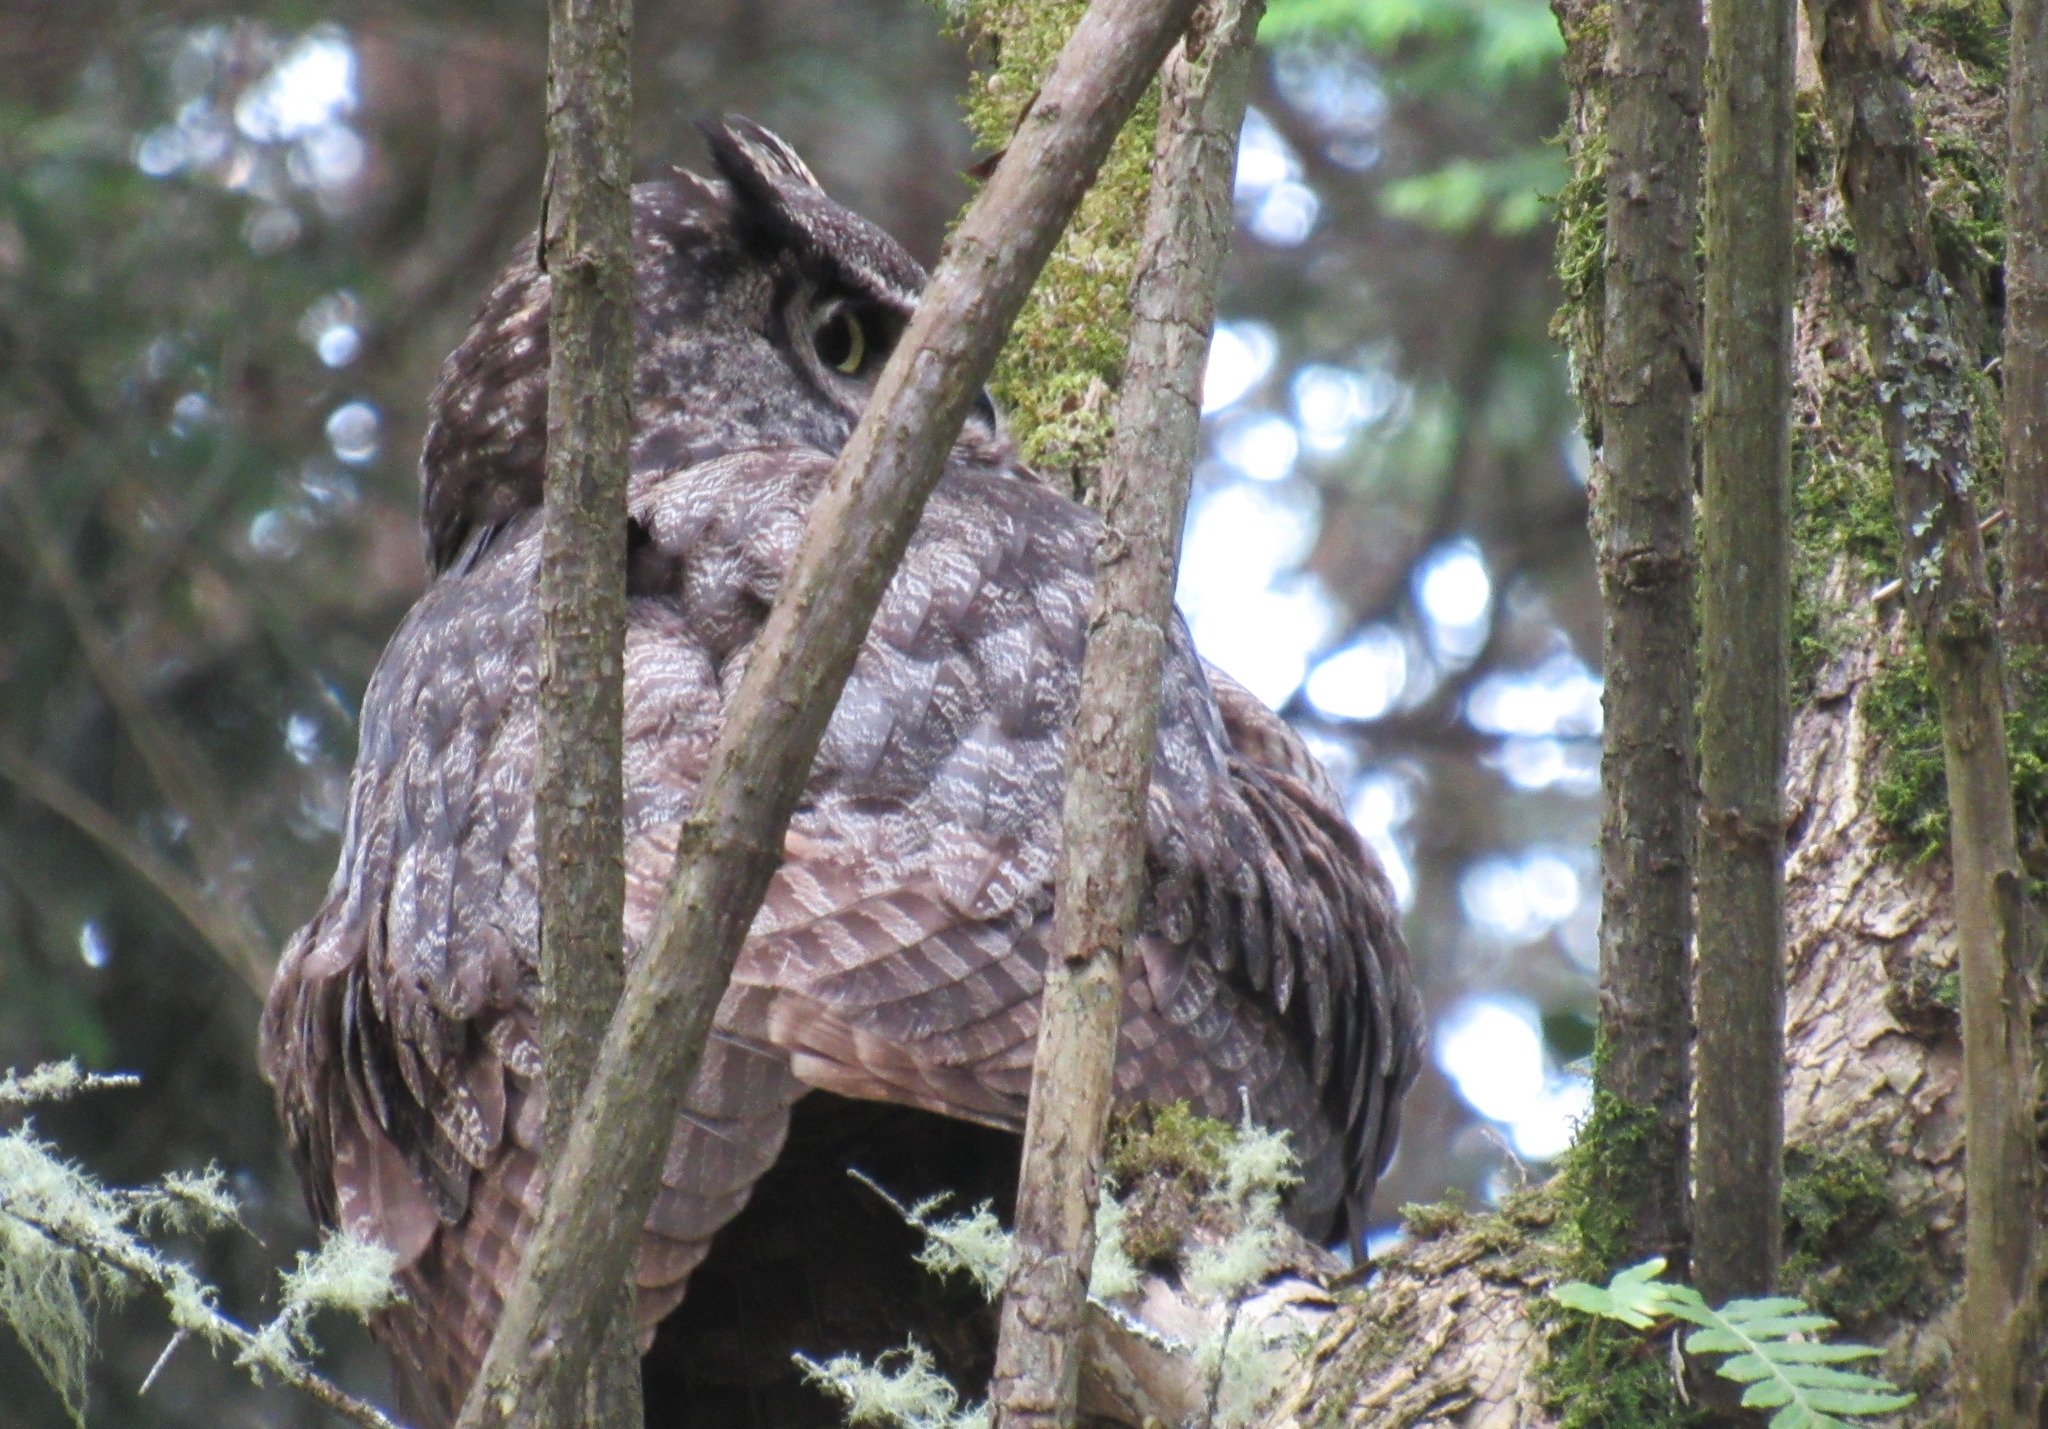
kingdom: Animalia
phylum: Chordata
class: Aves
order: Strigiformes
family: Strigidae
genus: Bubo
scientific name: Bubo virginianus
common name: Great horned owl
